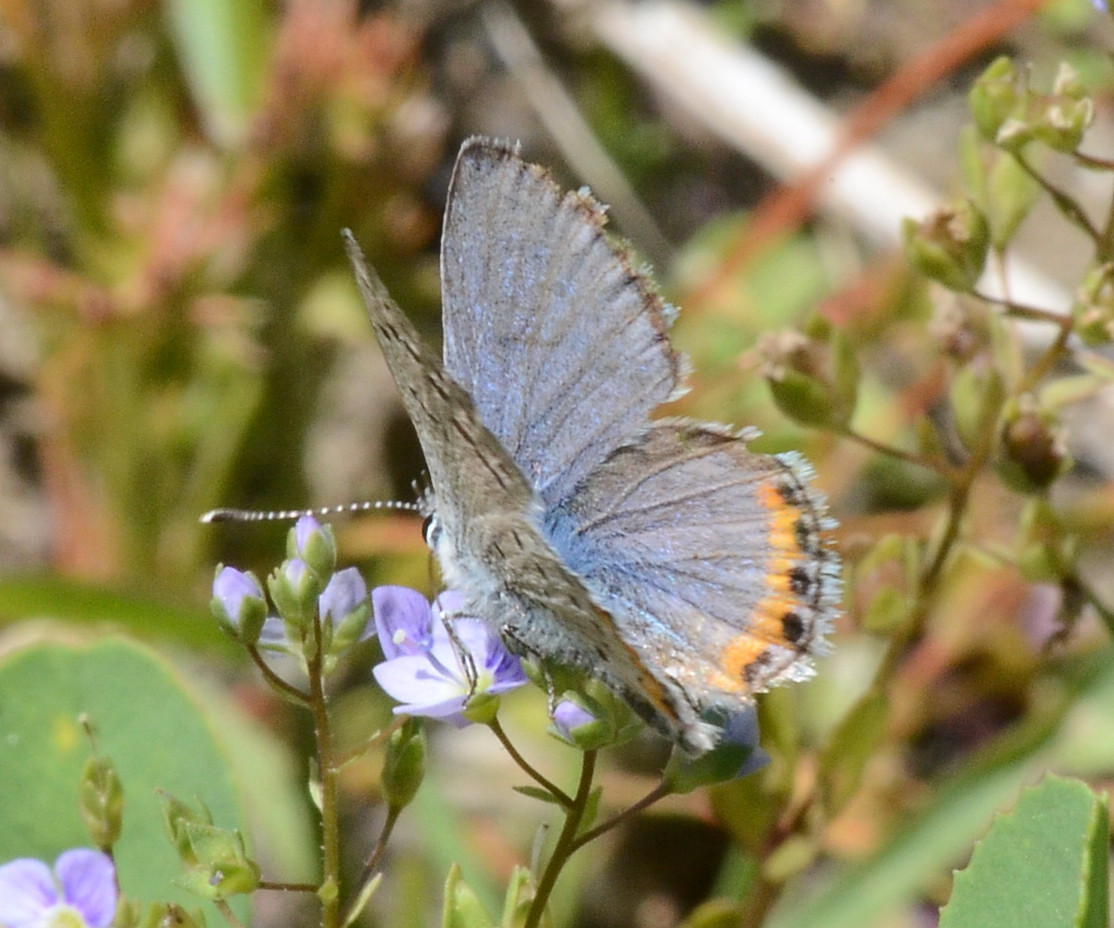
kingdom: Animalia
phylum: Arthropoda
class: Insecta
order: Lepidoptera
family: Lycaenidae
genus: Icaricia
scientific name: Icaricia acmon
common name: Acmon blue
